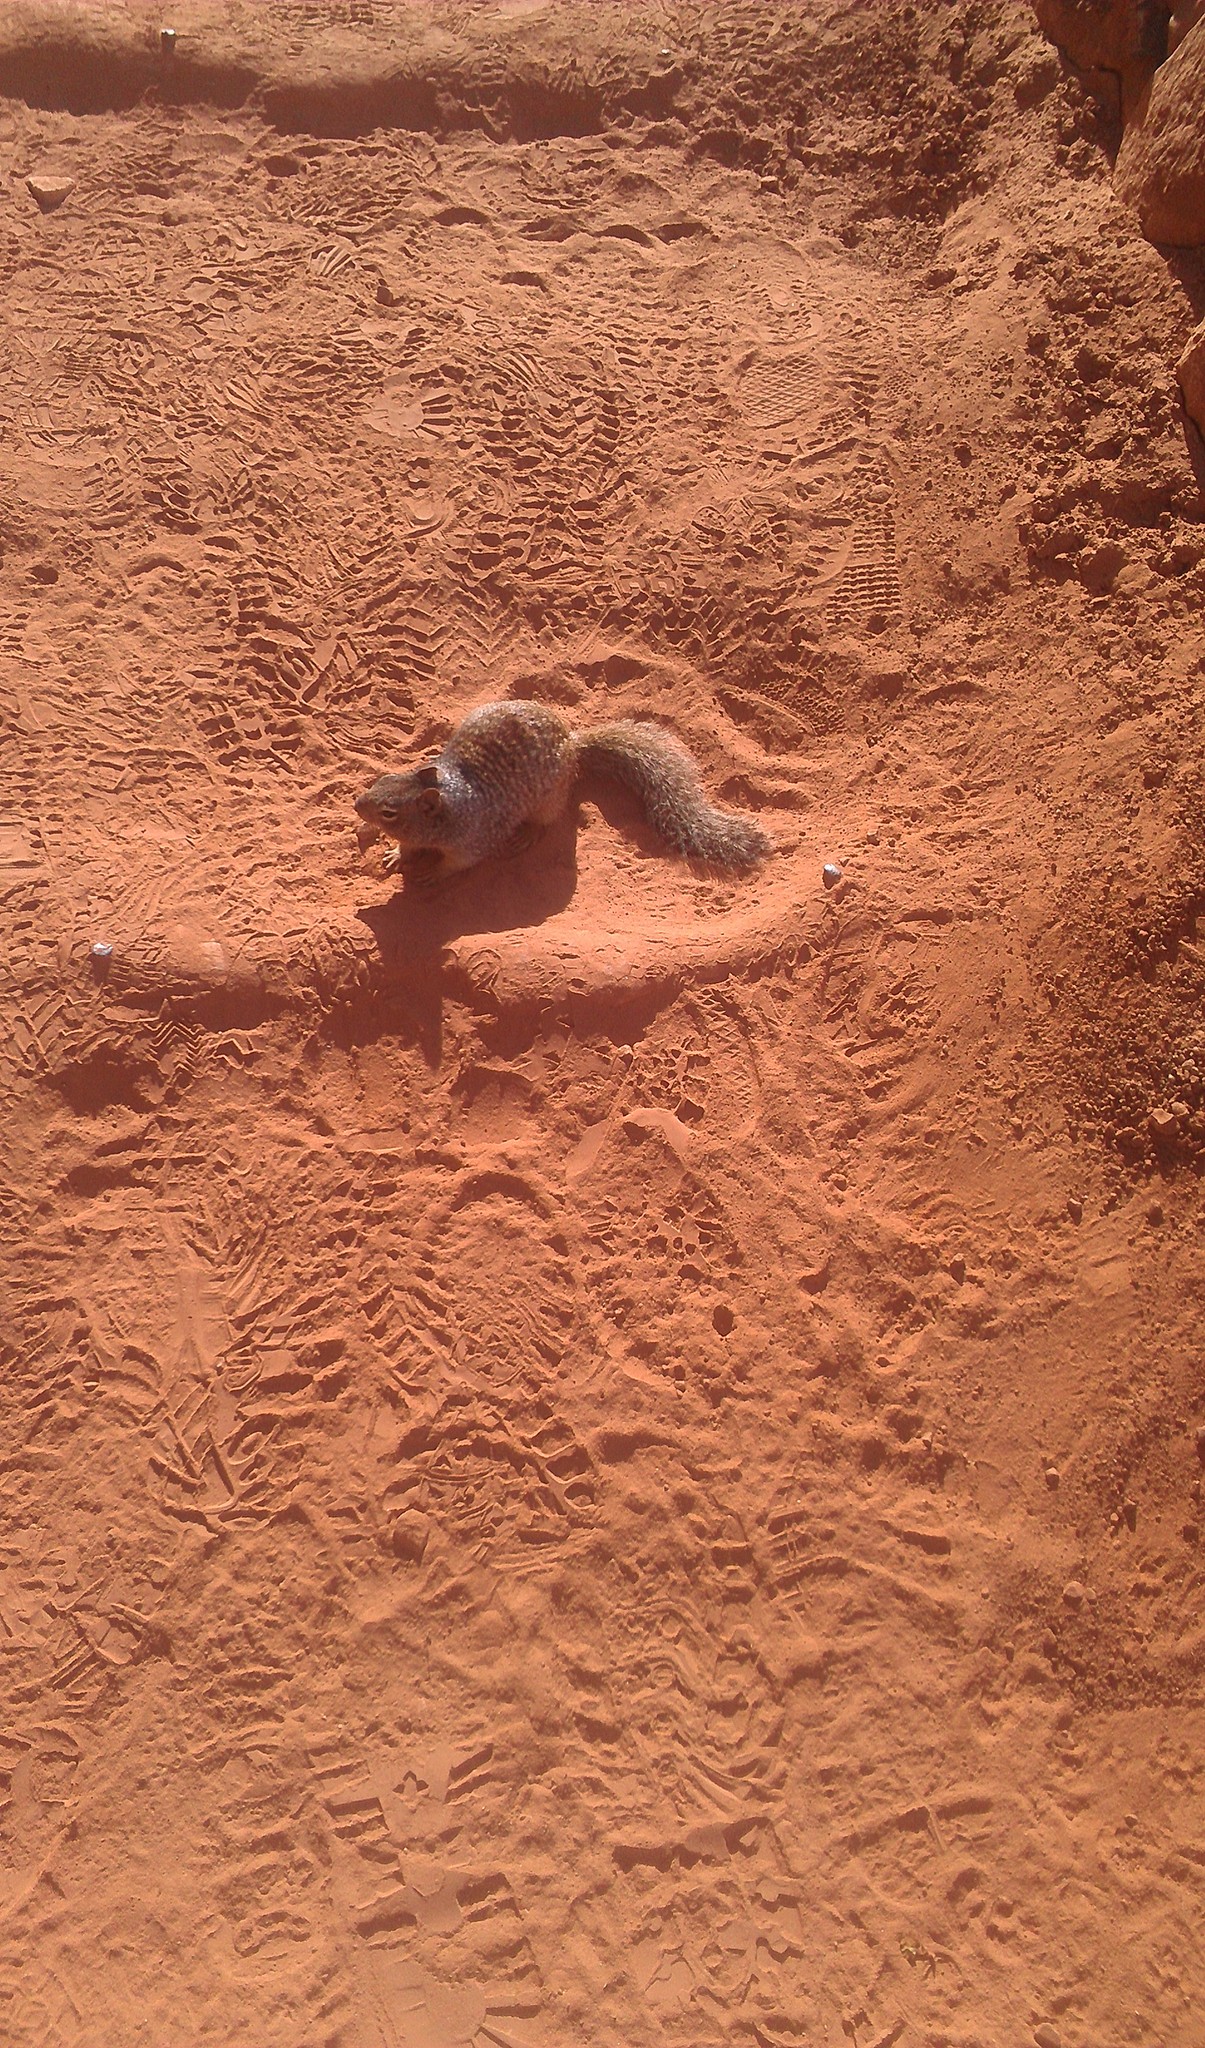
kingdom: Animalia
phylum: Chordata
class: Mammalia
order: Rodentia
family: Sciuridae
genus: Otospermophilus
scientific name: Otospermophilus variegatus
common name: Rock squirrel
